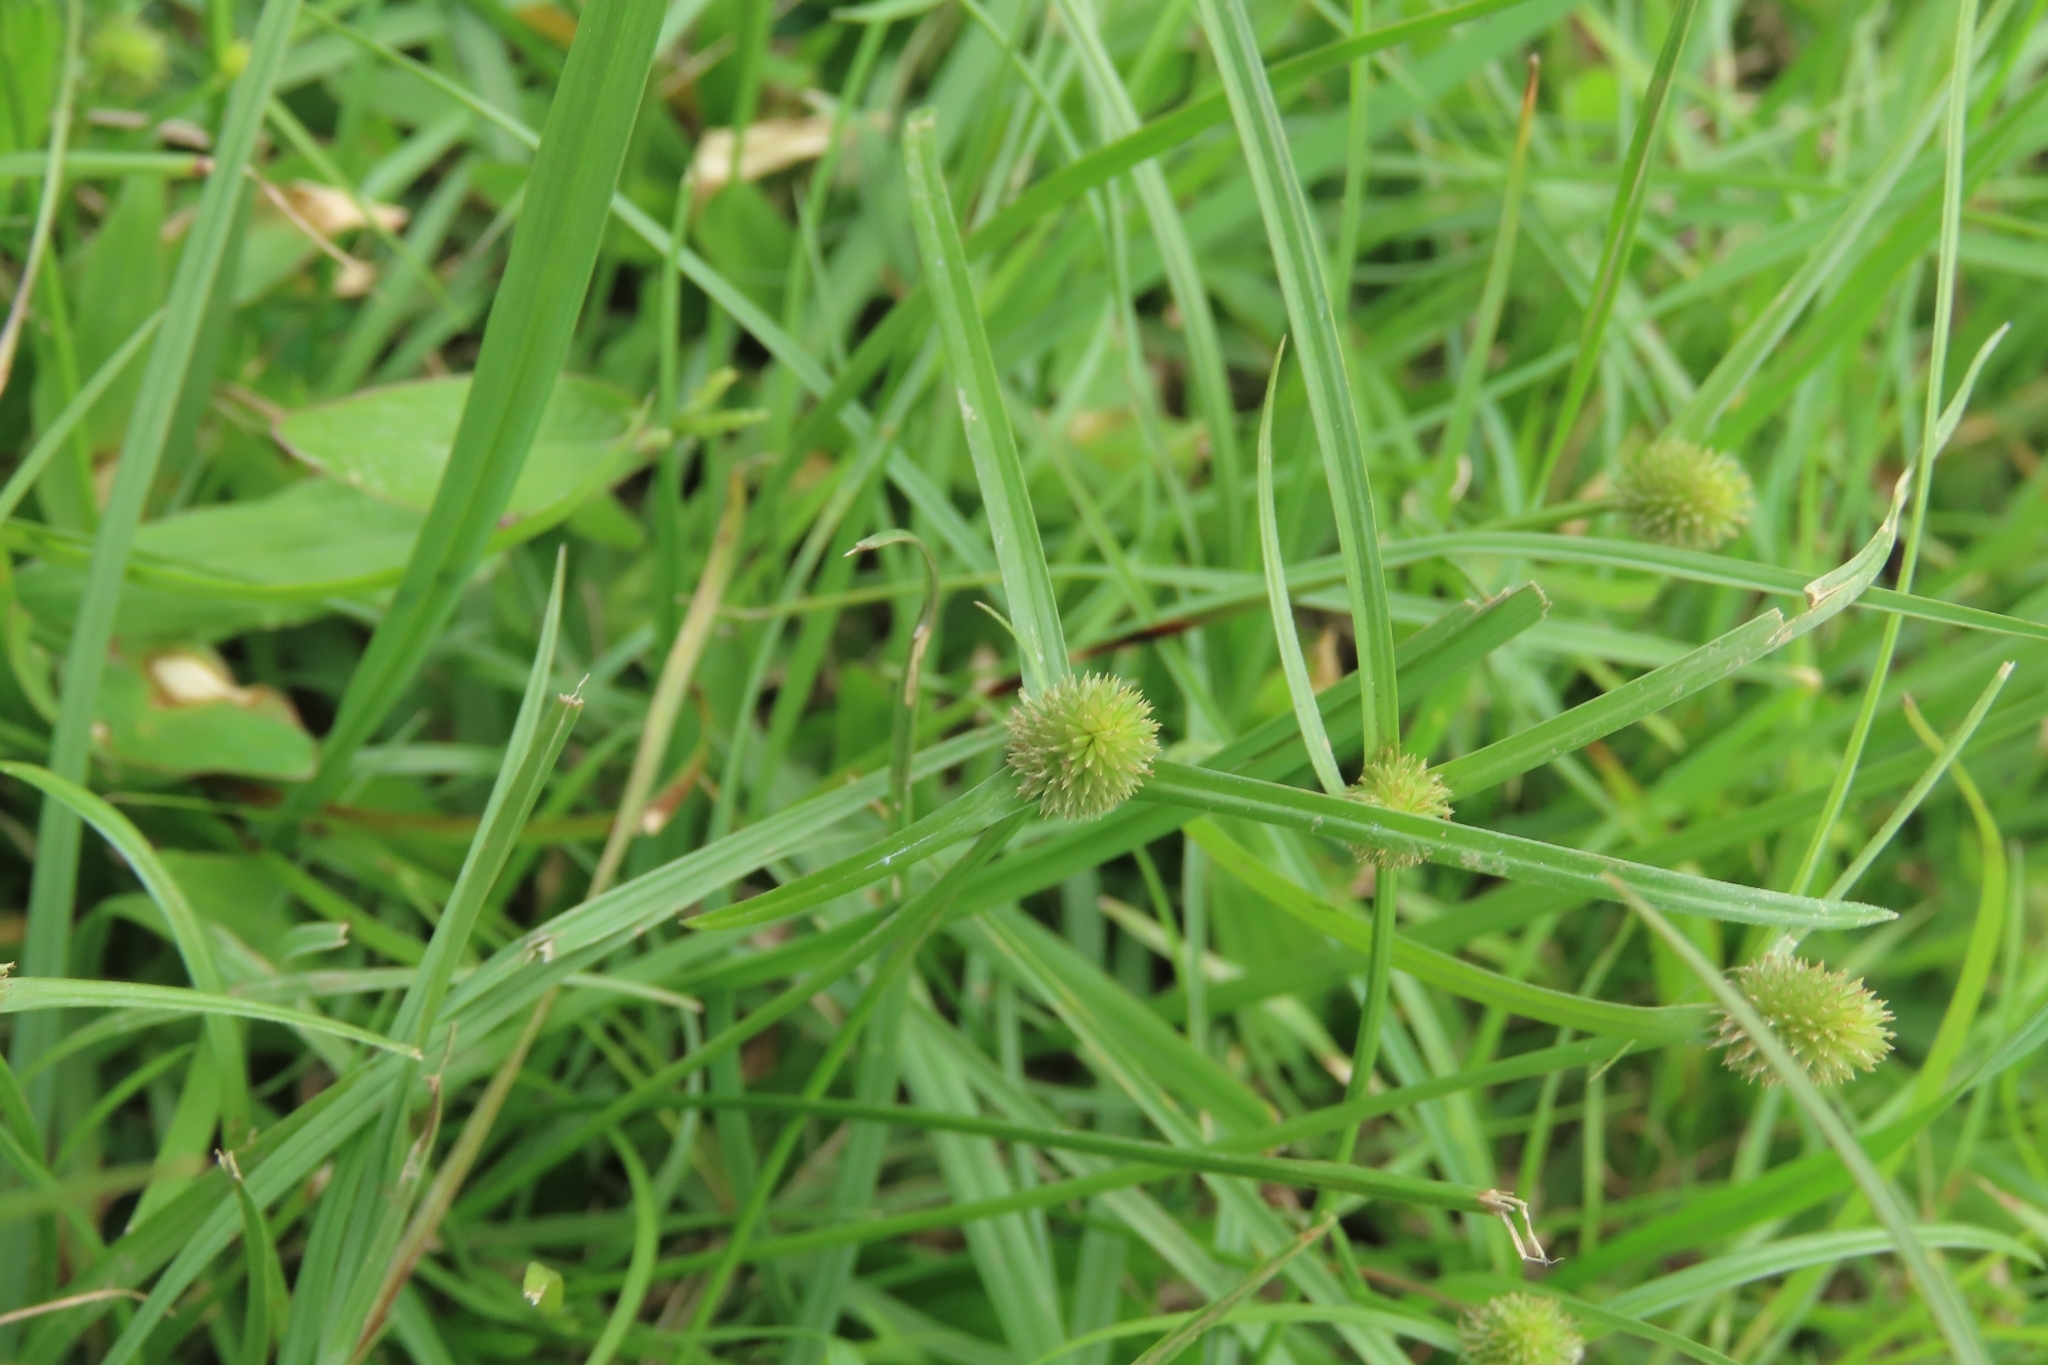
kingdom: Plantae
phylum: Tracheophyta
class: Liliopsida
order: Poales
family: Cyperaceae
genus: Cyperus
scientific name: Cyperus brevifolius
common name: Globe kyllinga
